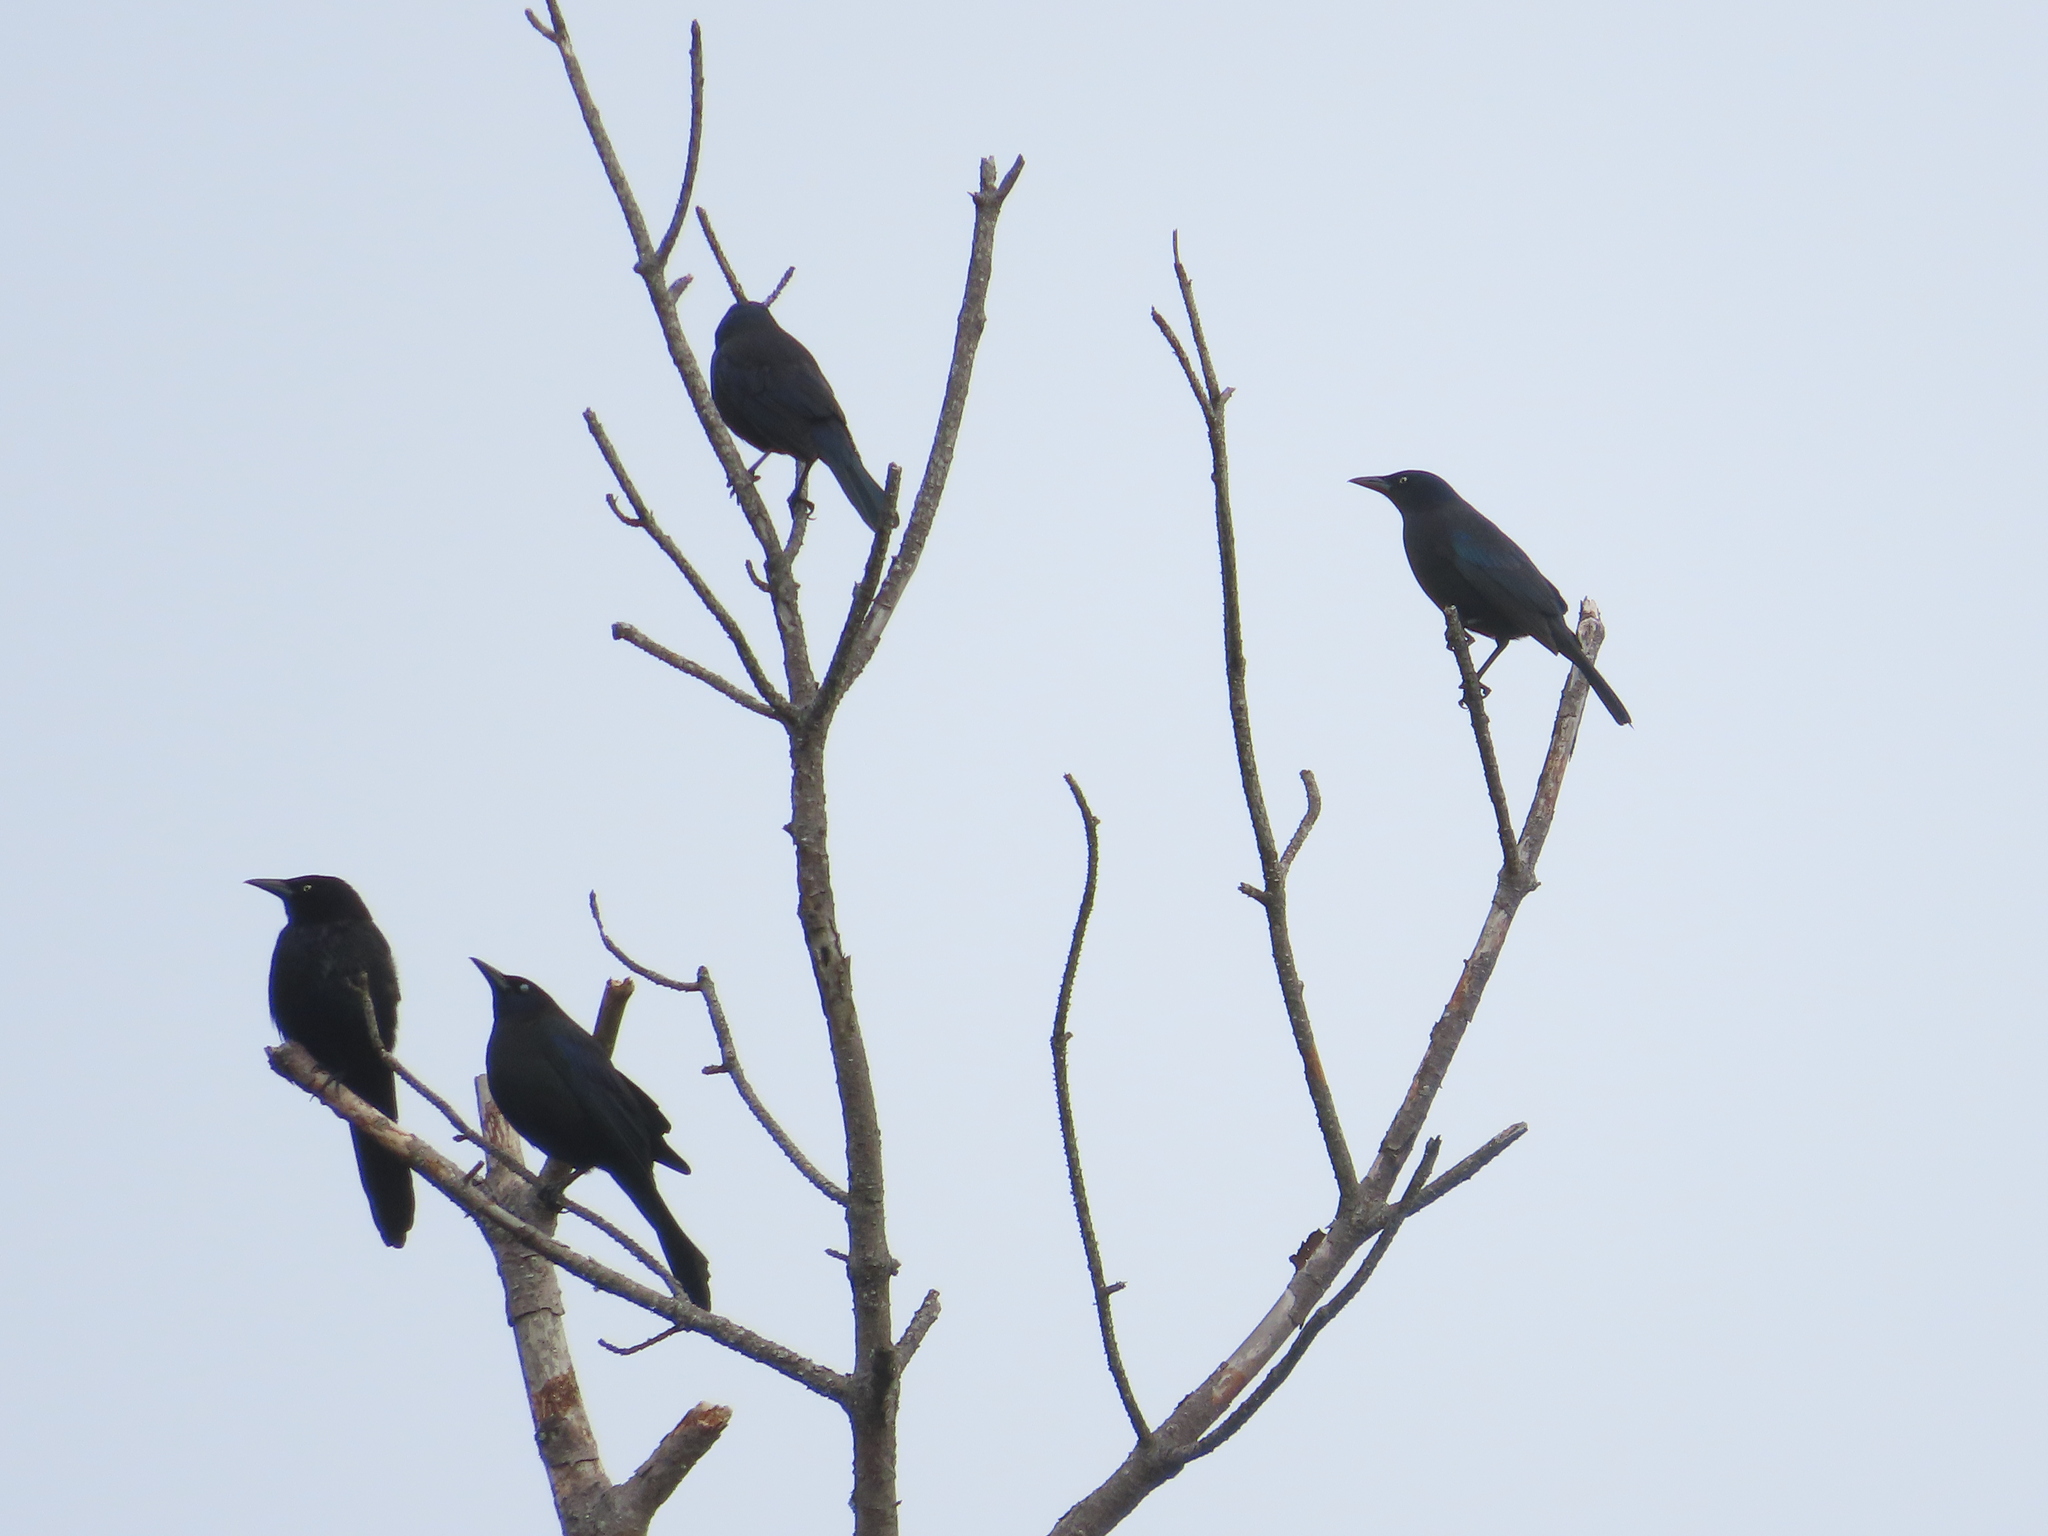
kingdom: Animalia
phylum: Chordata
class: Aves
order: Passeriformes
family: Icteridae
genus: Quiscalus
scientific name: Quiscalus quiscula
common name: Common grackle
